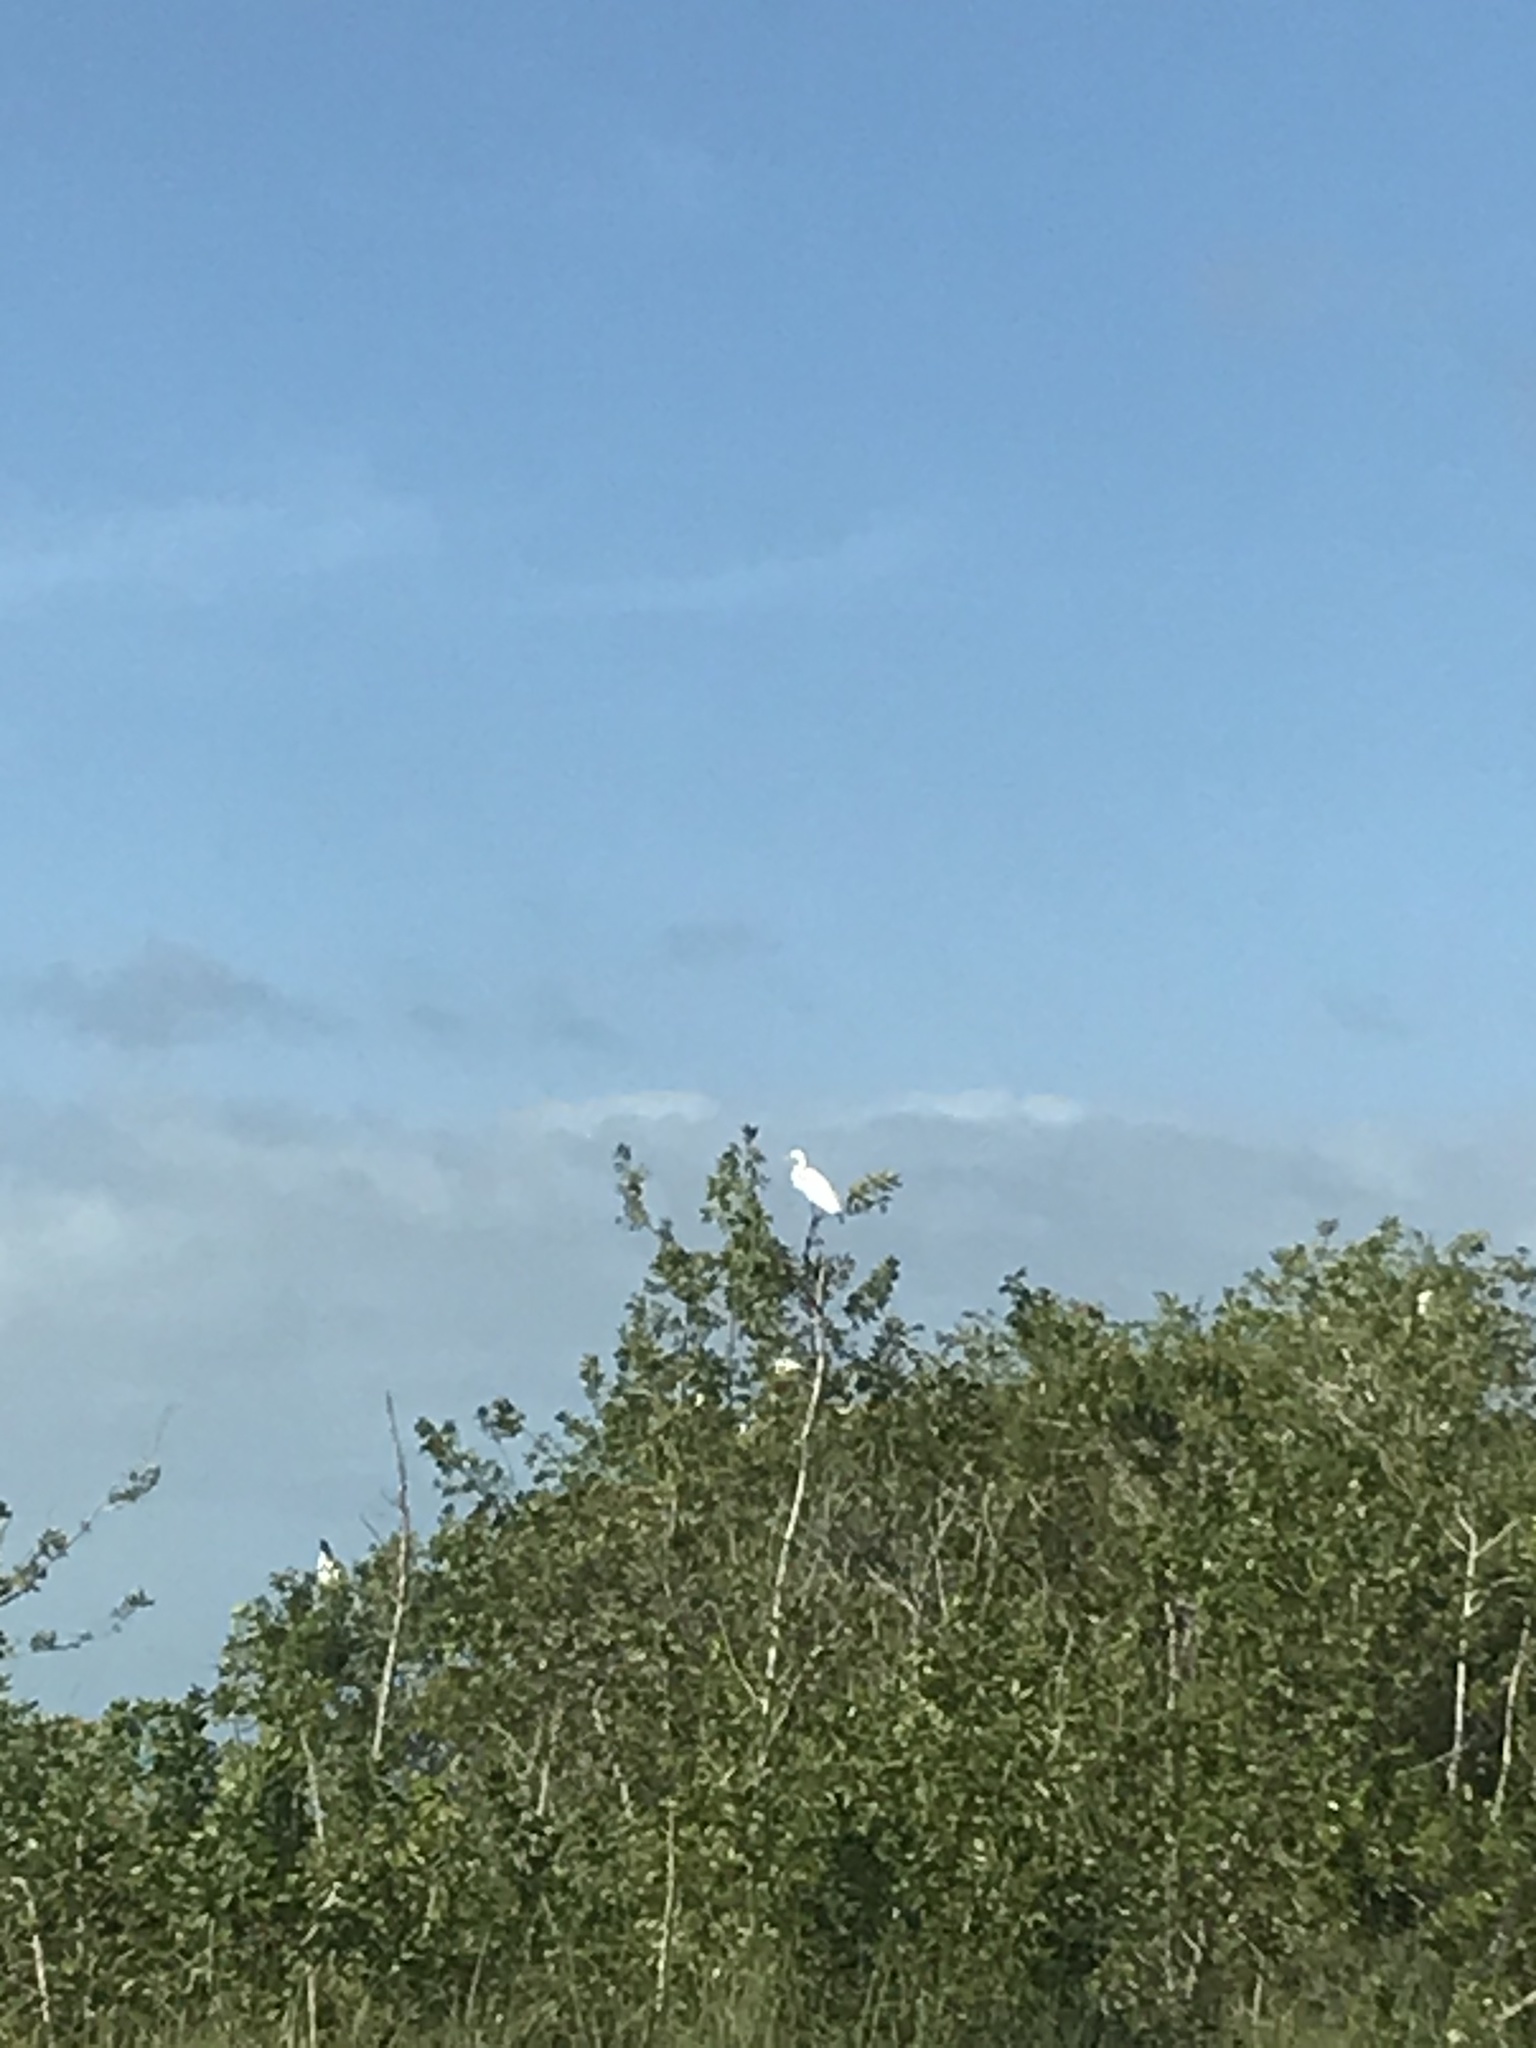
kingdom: Animalia
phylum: Chordata
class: Aves
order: Pelecaniformes
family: Ardeidae
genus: Ardea
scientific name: Ardea alba
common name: Great egret
